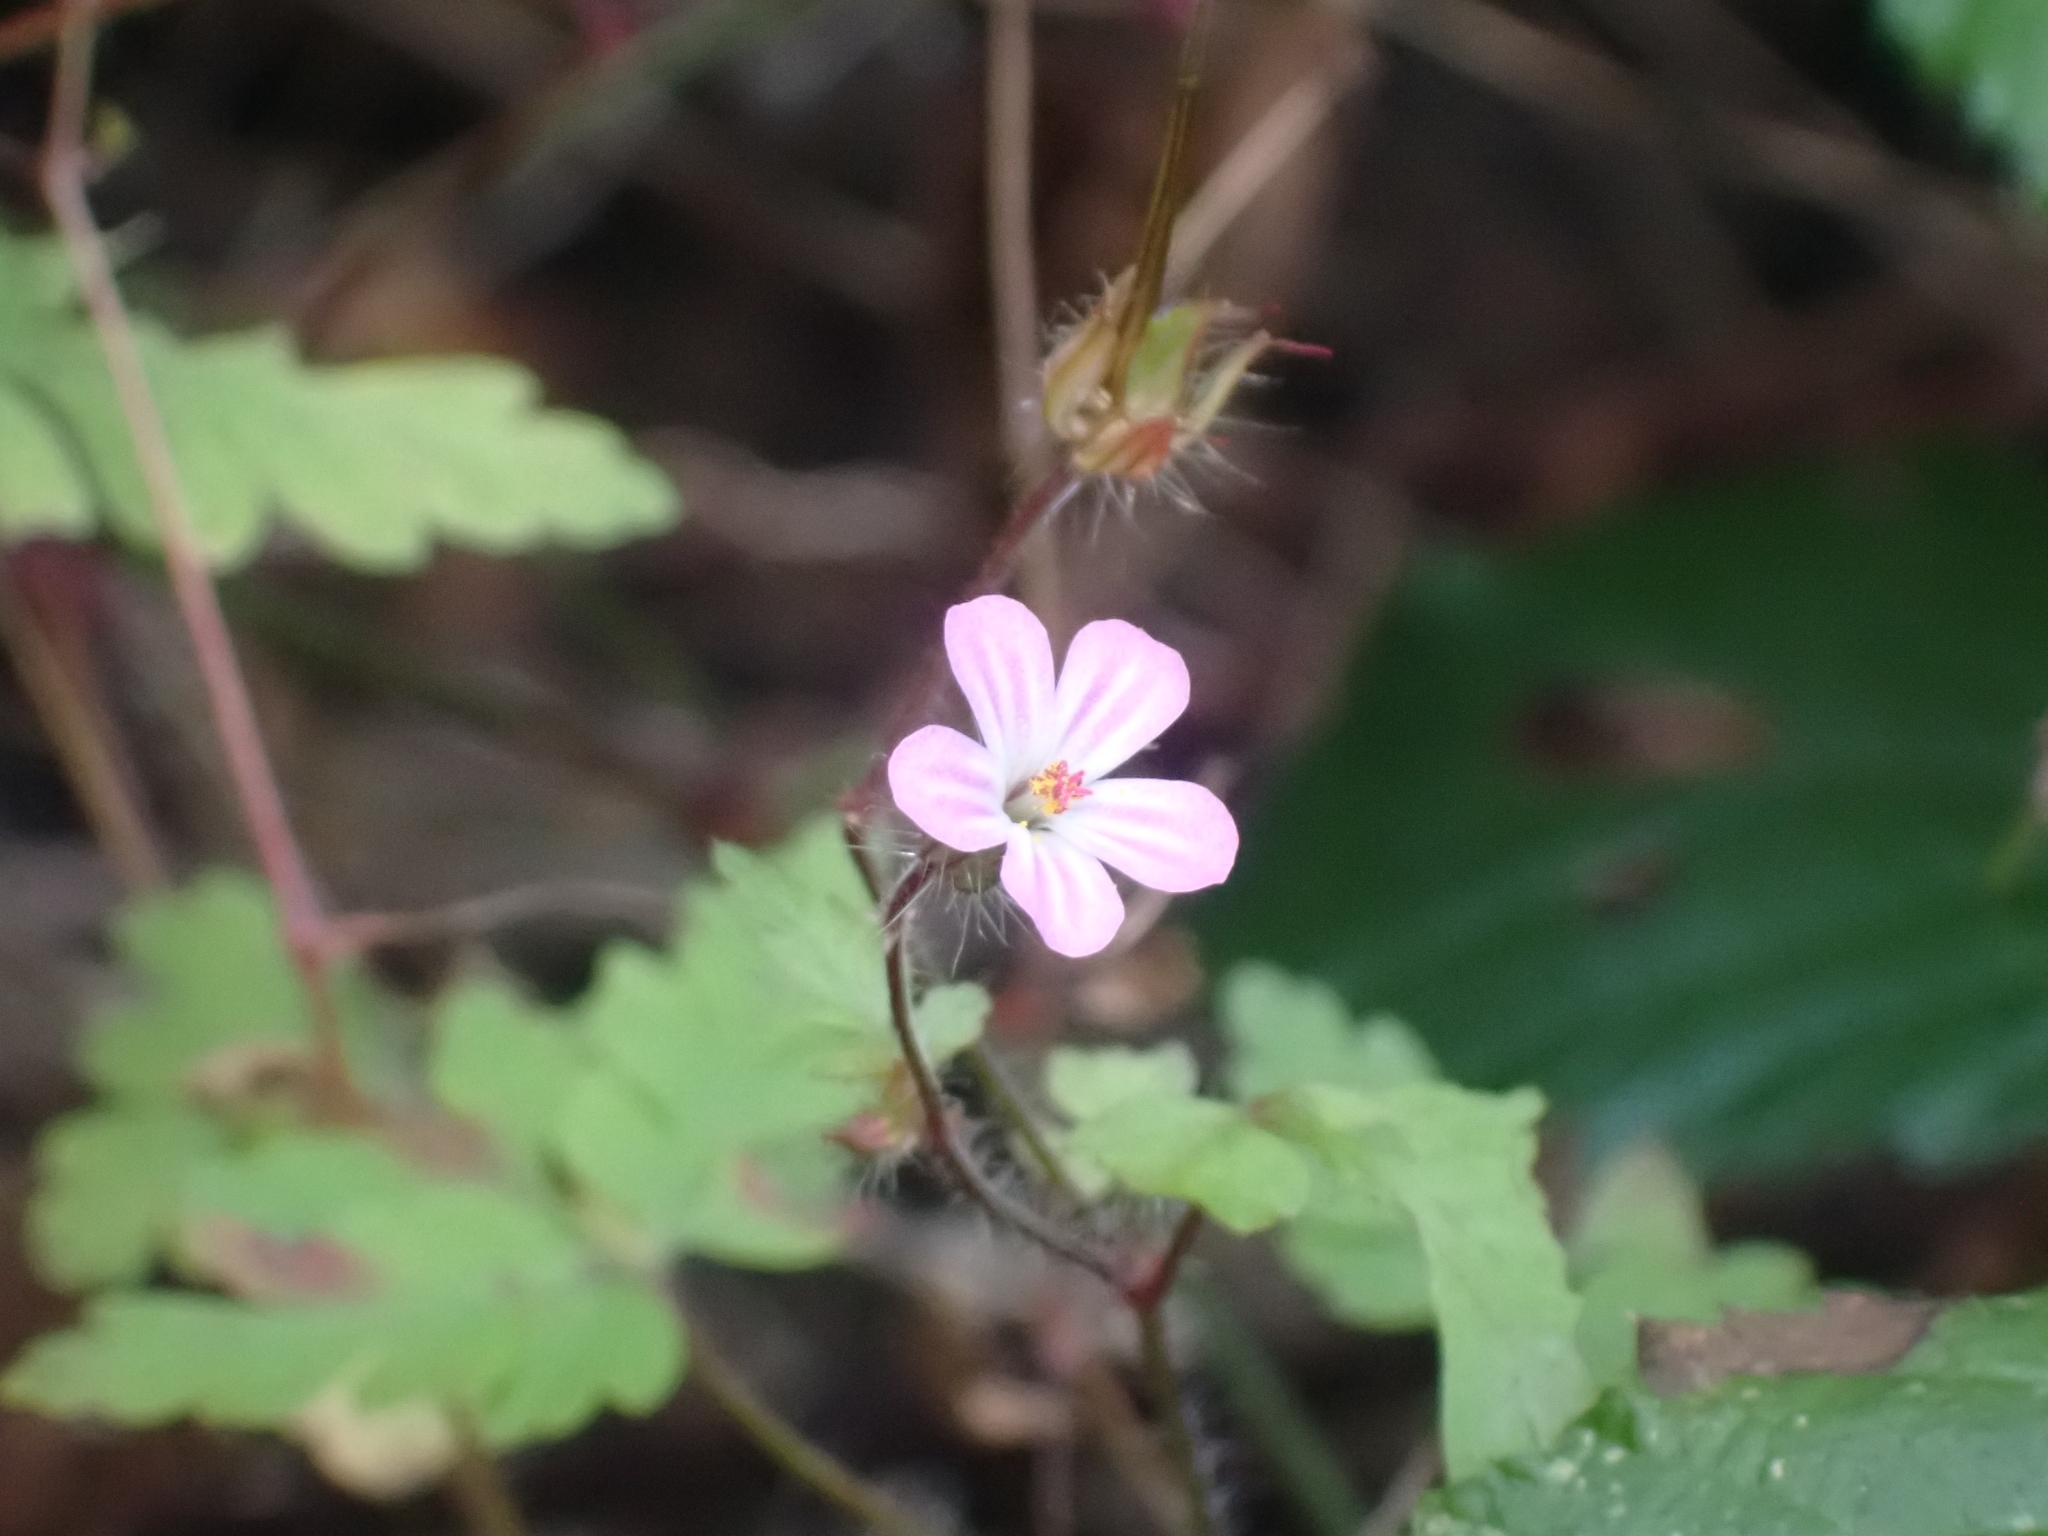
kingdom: Plantae
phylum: Tracheophyta
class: Magnoliopsida
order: Geraniales
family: Geraniaceae
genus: Geranium
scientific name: Geranium robertianum
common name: Herb-robert
